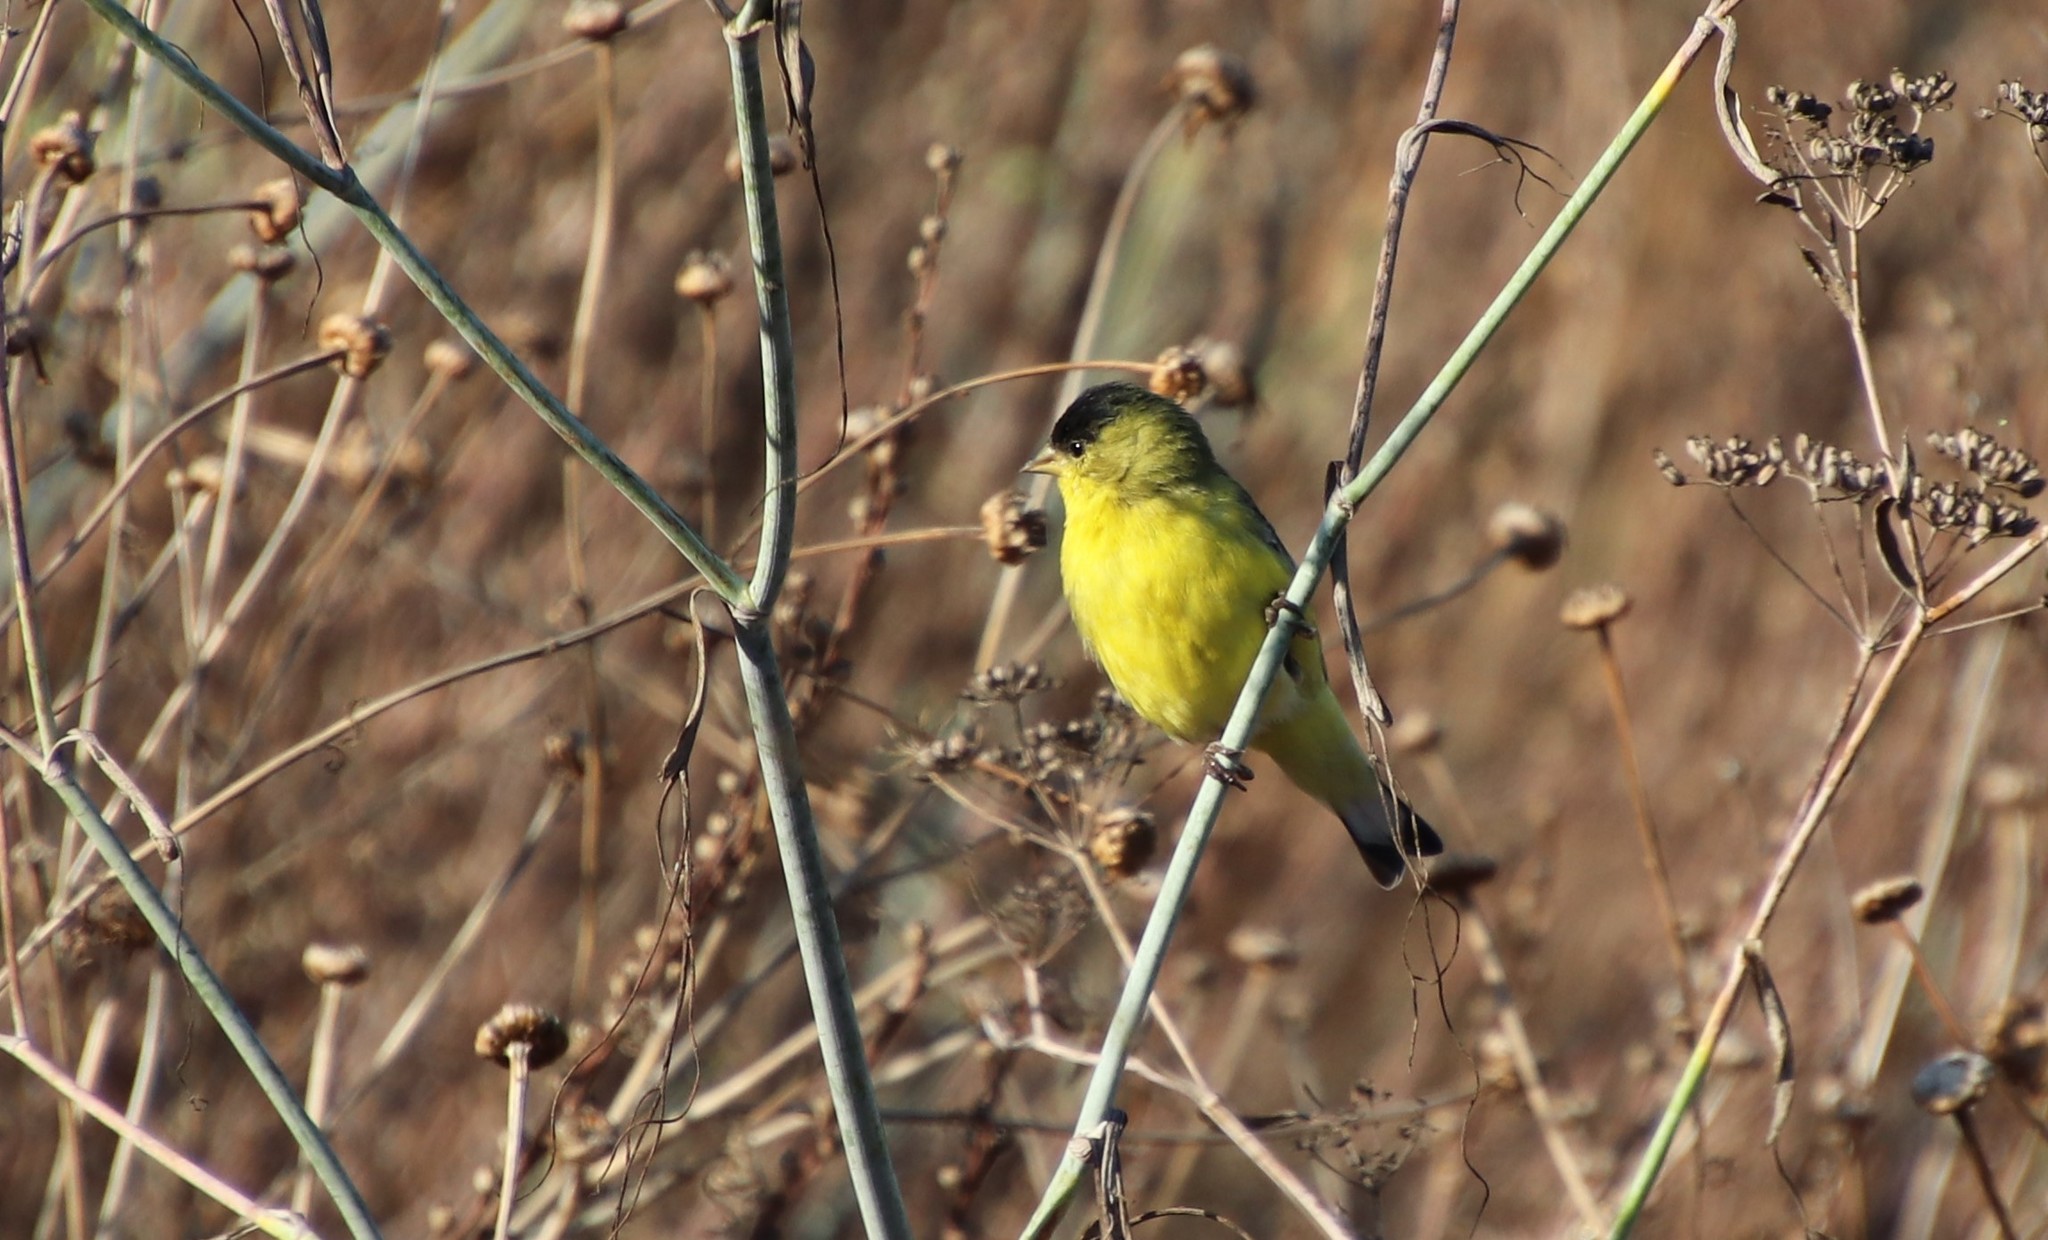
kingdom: Animalia
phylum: Chordata
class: Aves
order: Passeriformes
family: Fringillidae
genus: Spinus
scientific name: Spinus psaltria
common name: Lesser goldfinch
